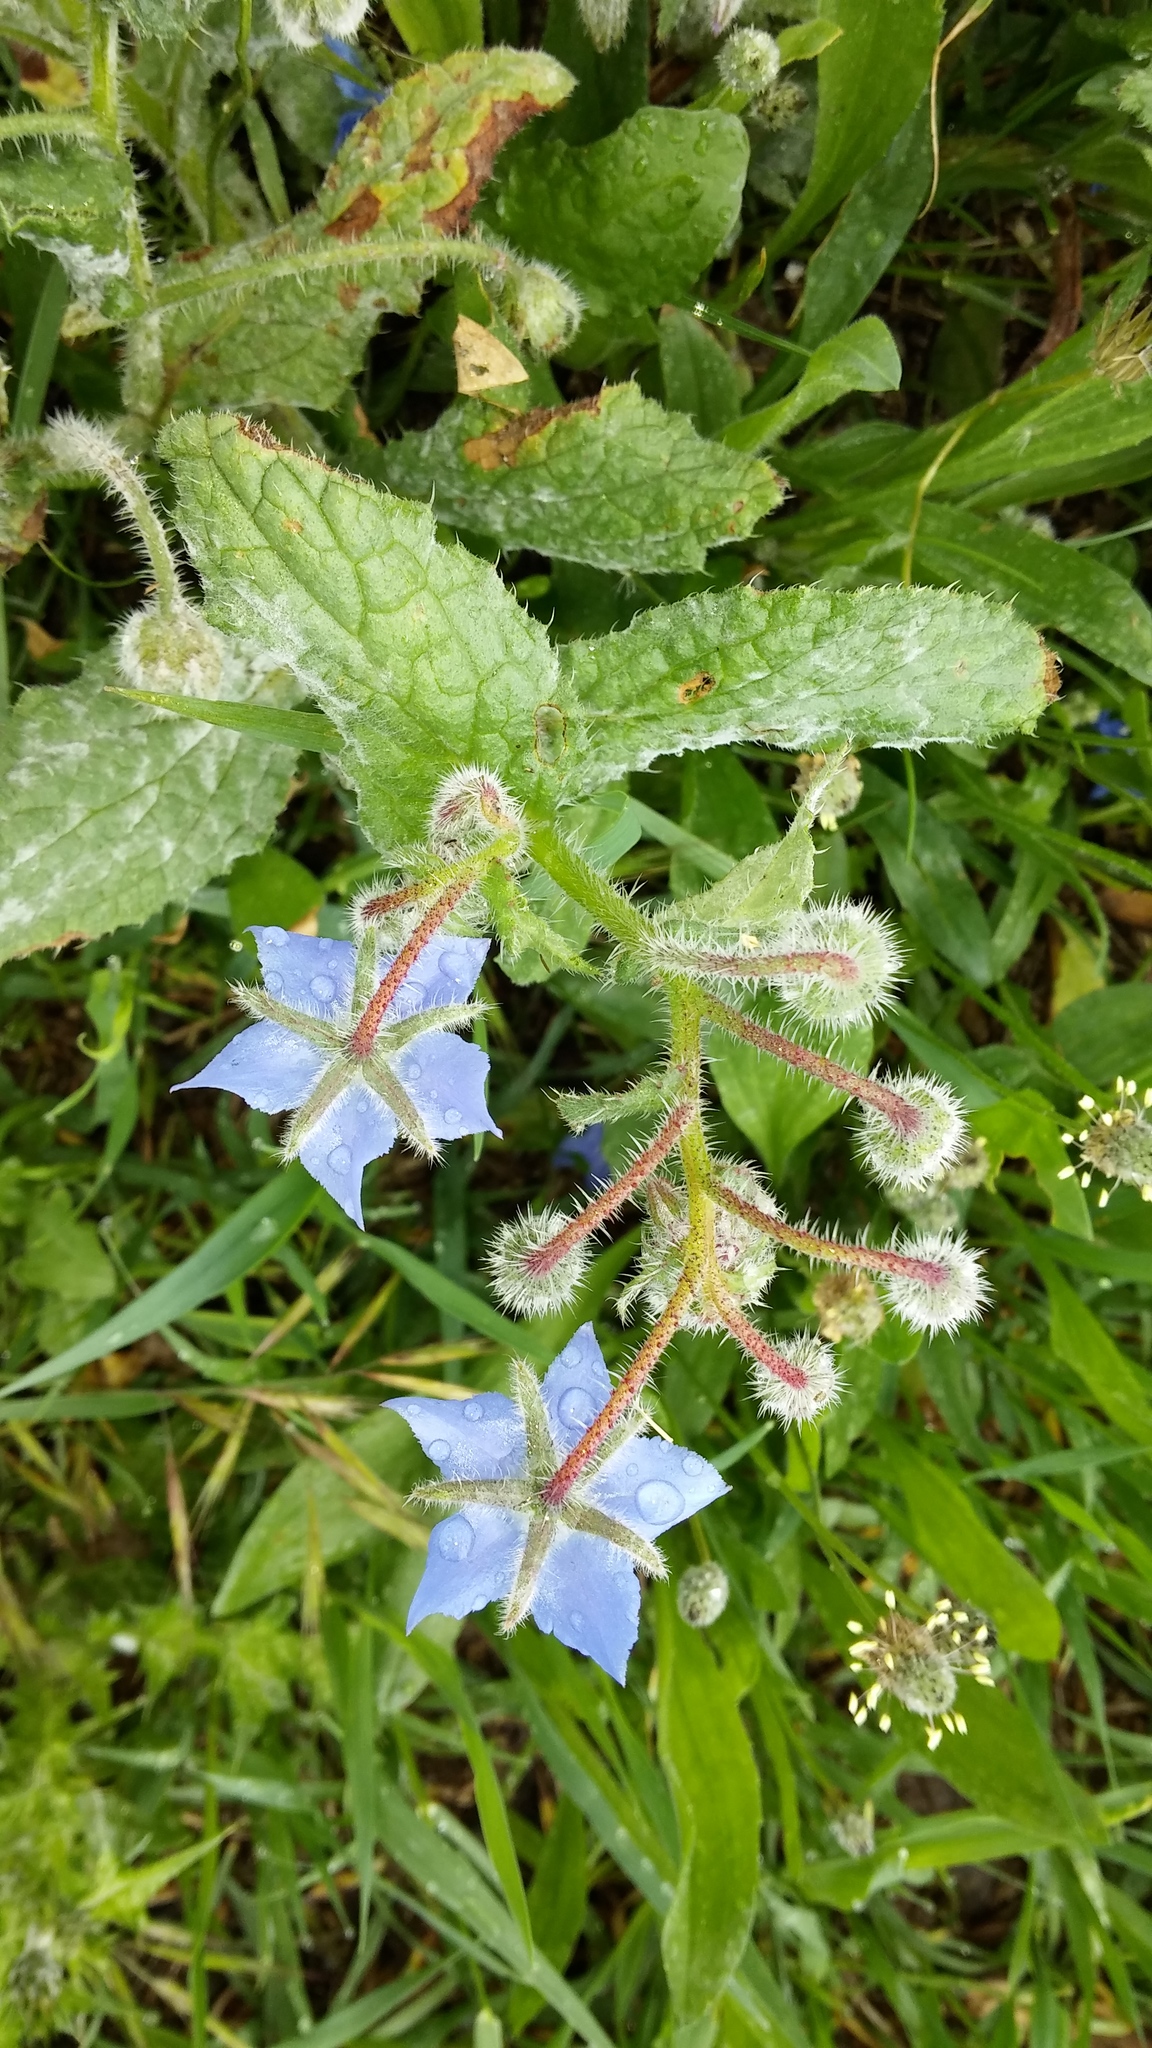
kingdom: Plantae
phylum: Tracheophyta
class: Magnoliopsida
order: Boraginales
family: Boraginaceae
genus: Borago
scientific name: Borago officinalis
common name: Borage
